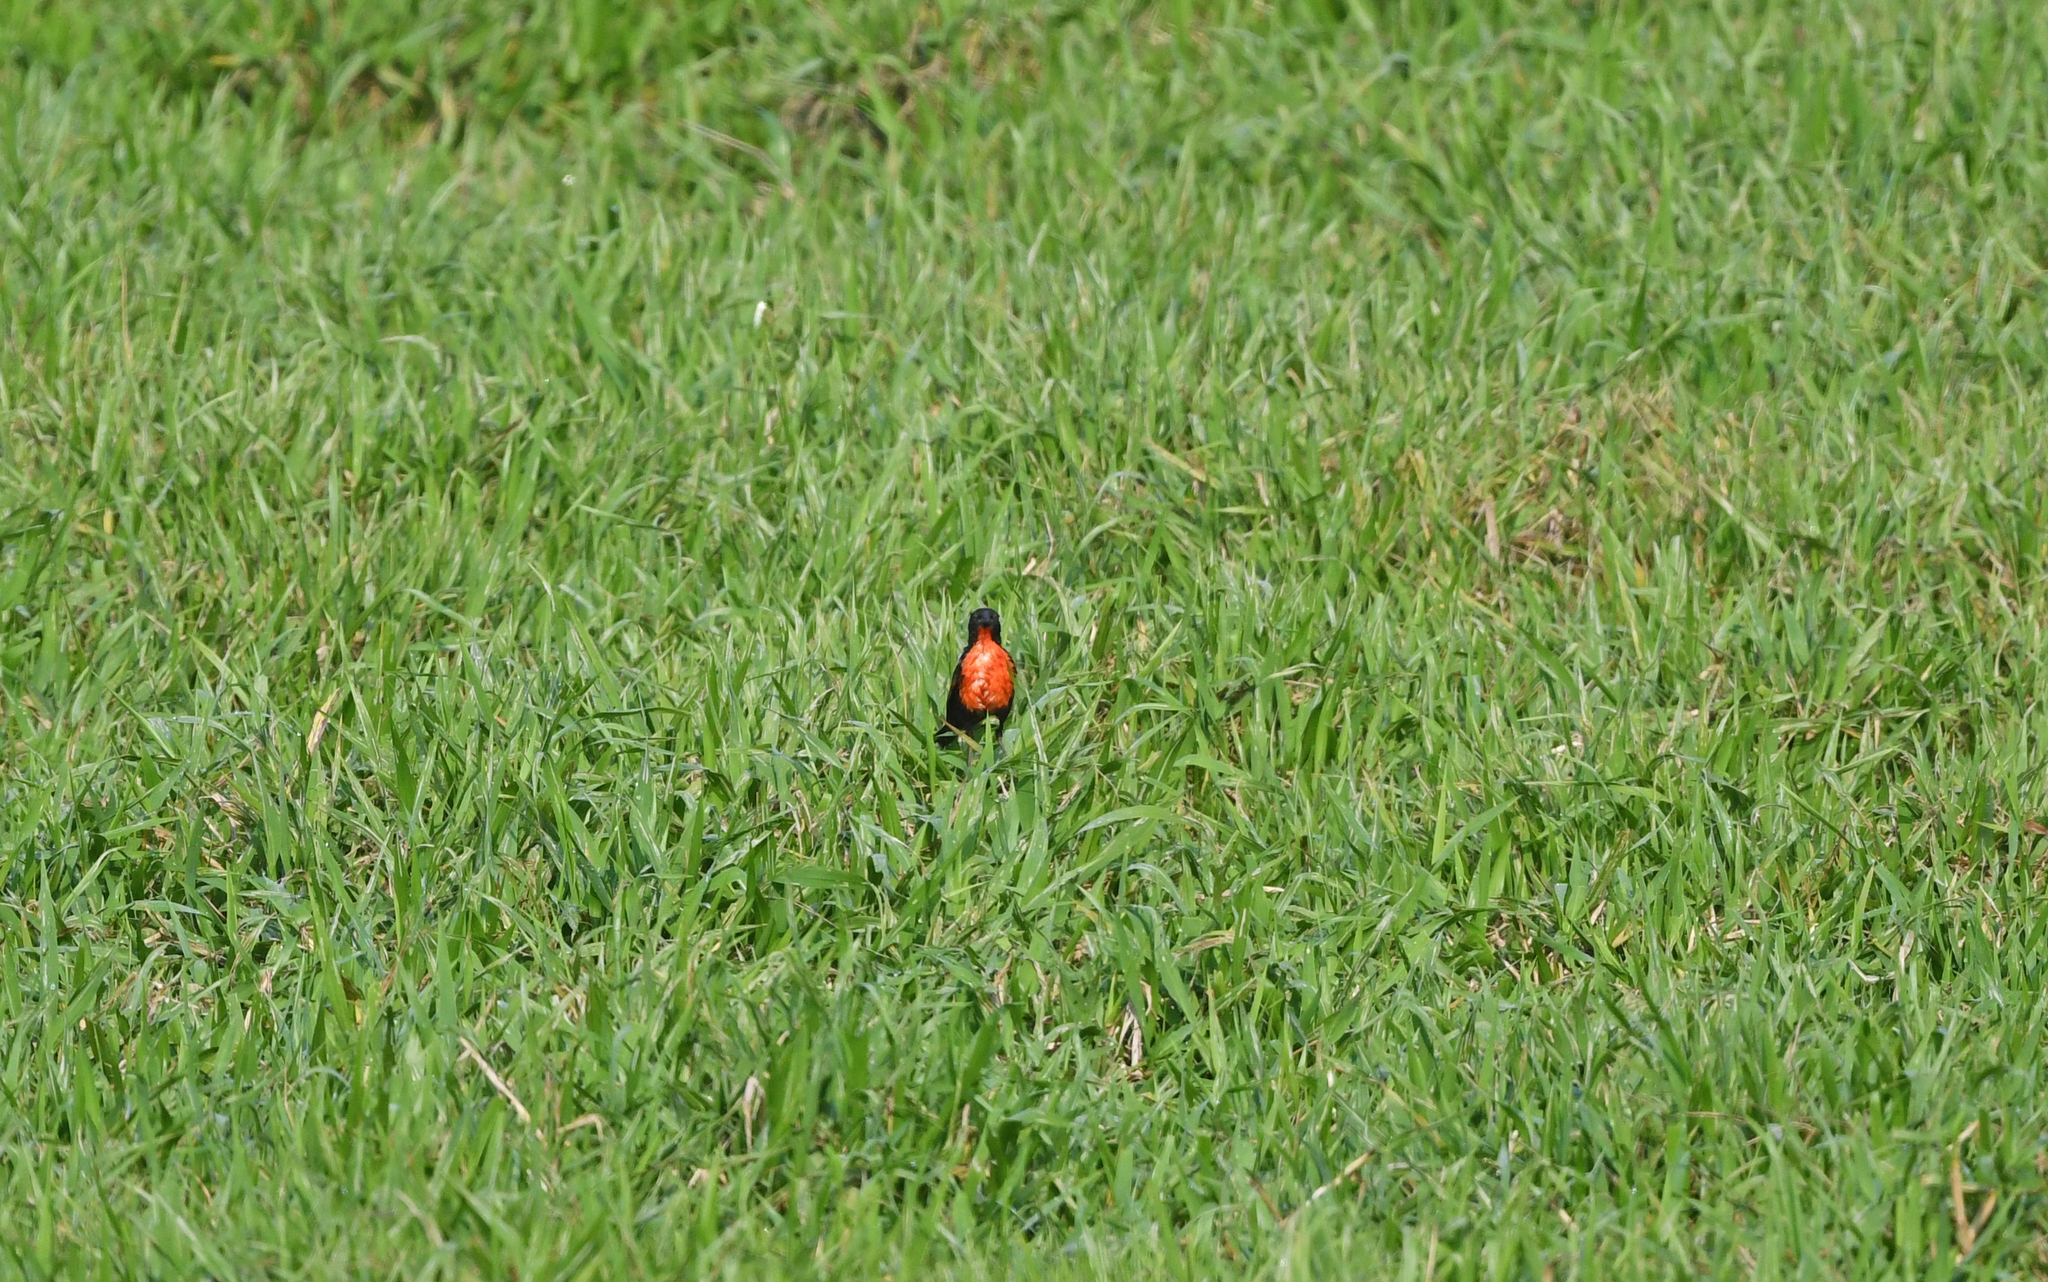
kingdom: Animalia
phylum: Chordata
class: Aves
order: Passeriformes
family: Icteridae
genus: Sturnella
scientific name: Sturnella militaris
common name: Red-breasted blackbird
